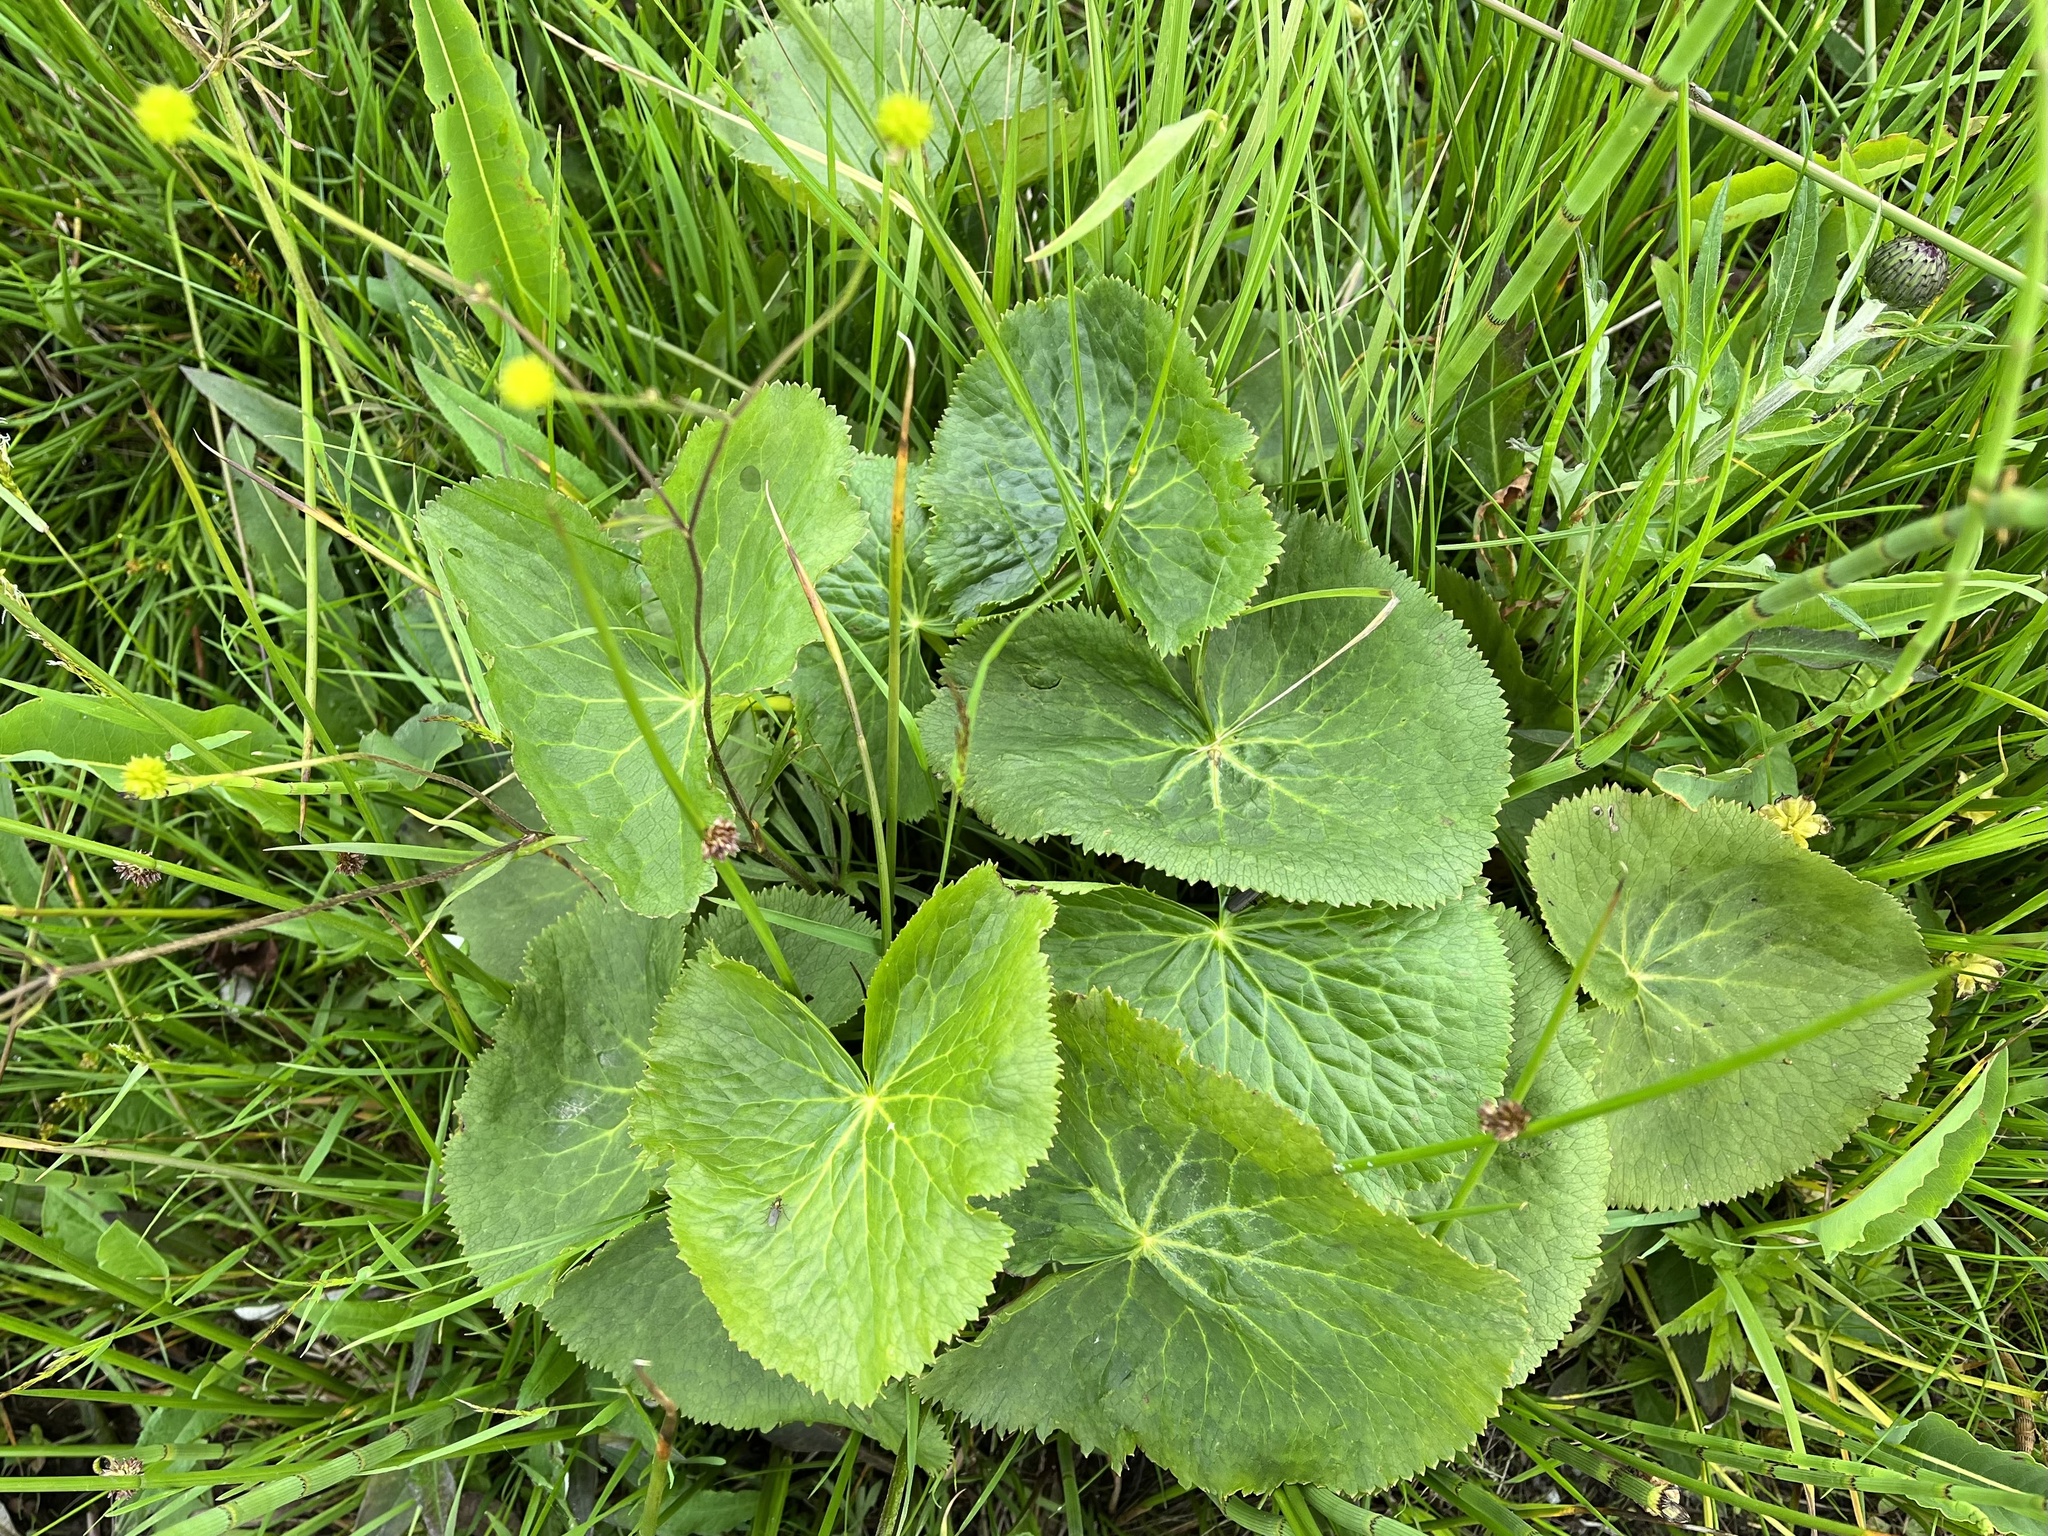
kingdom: Plantae
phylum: Tracheophyta
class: Magnoliopsida
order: Ranunculales
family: Ranunculaceae
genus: Caltha
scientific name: Caltha palustris
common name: Marsh marigold
